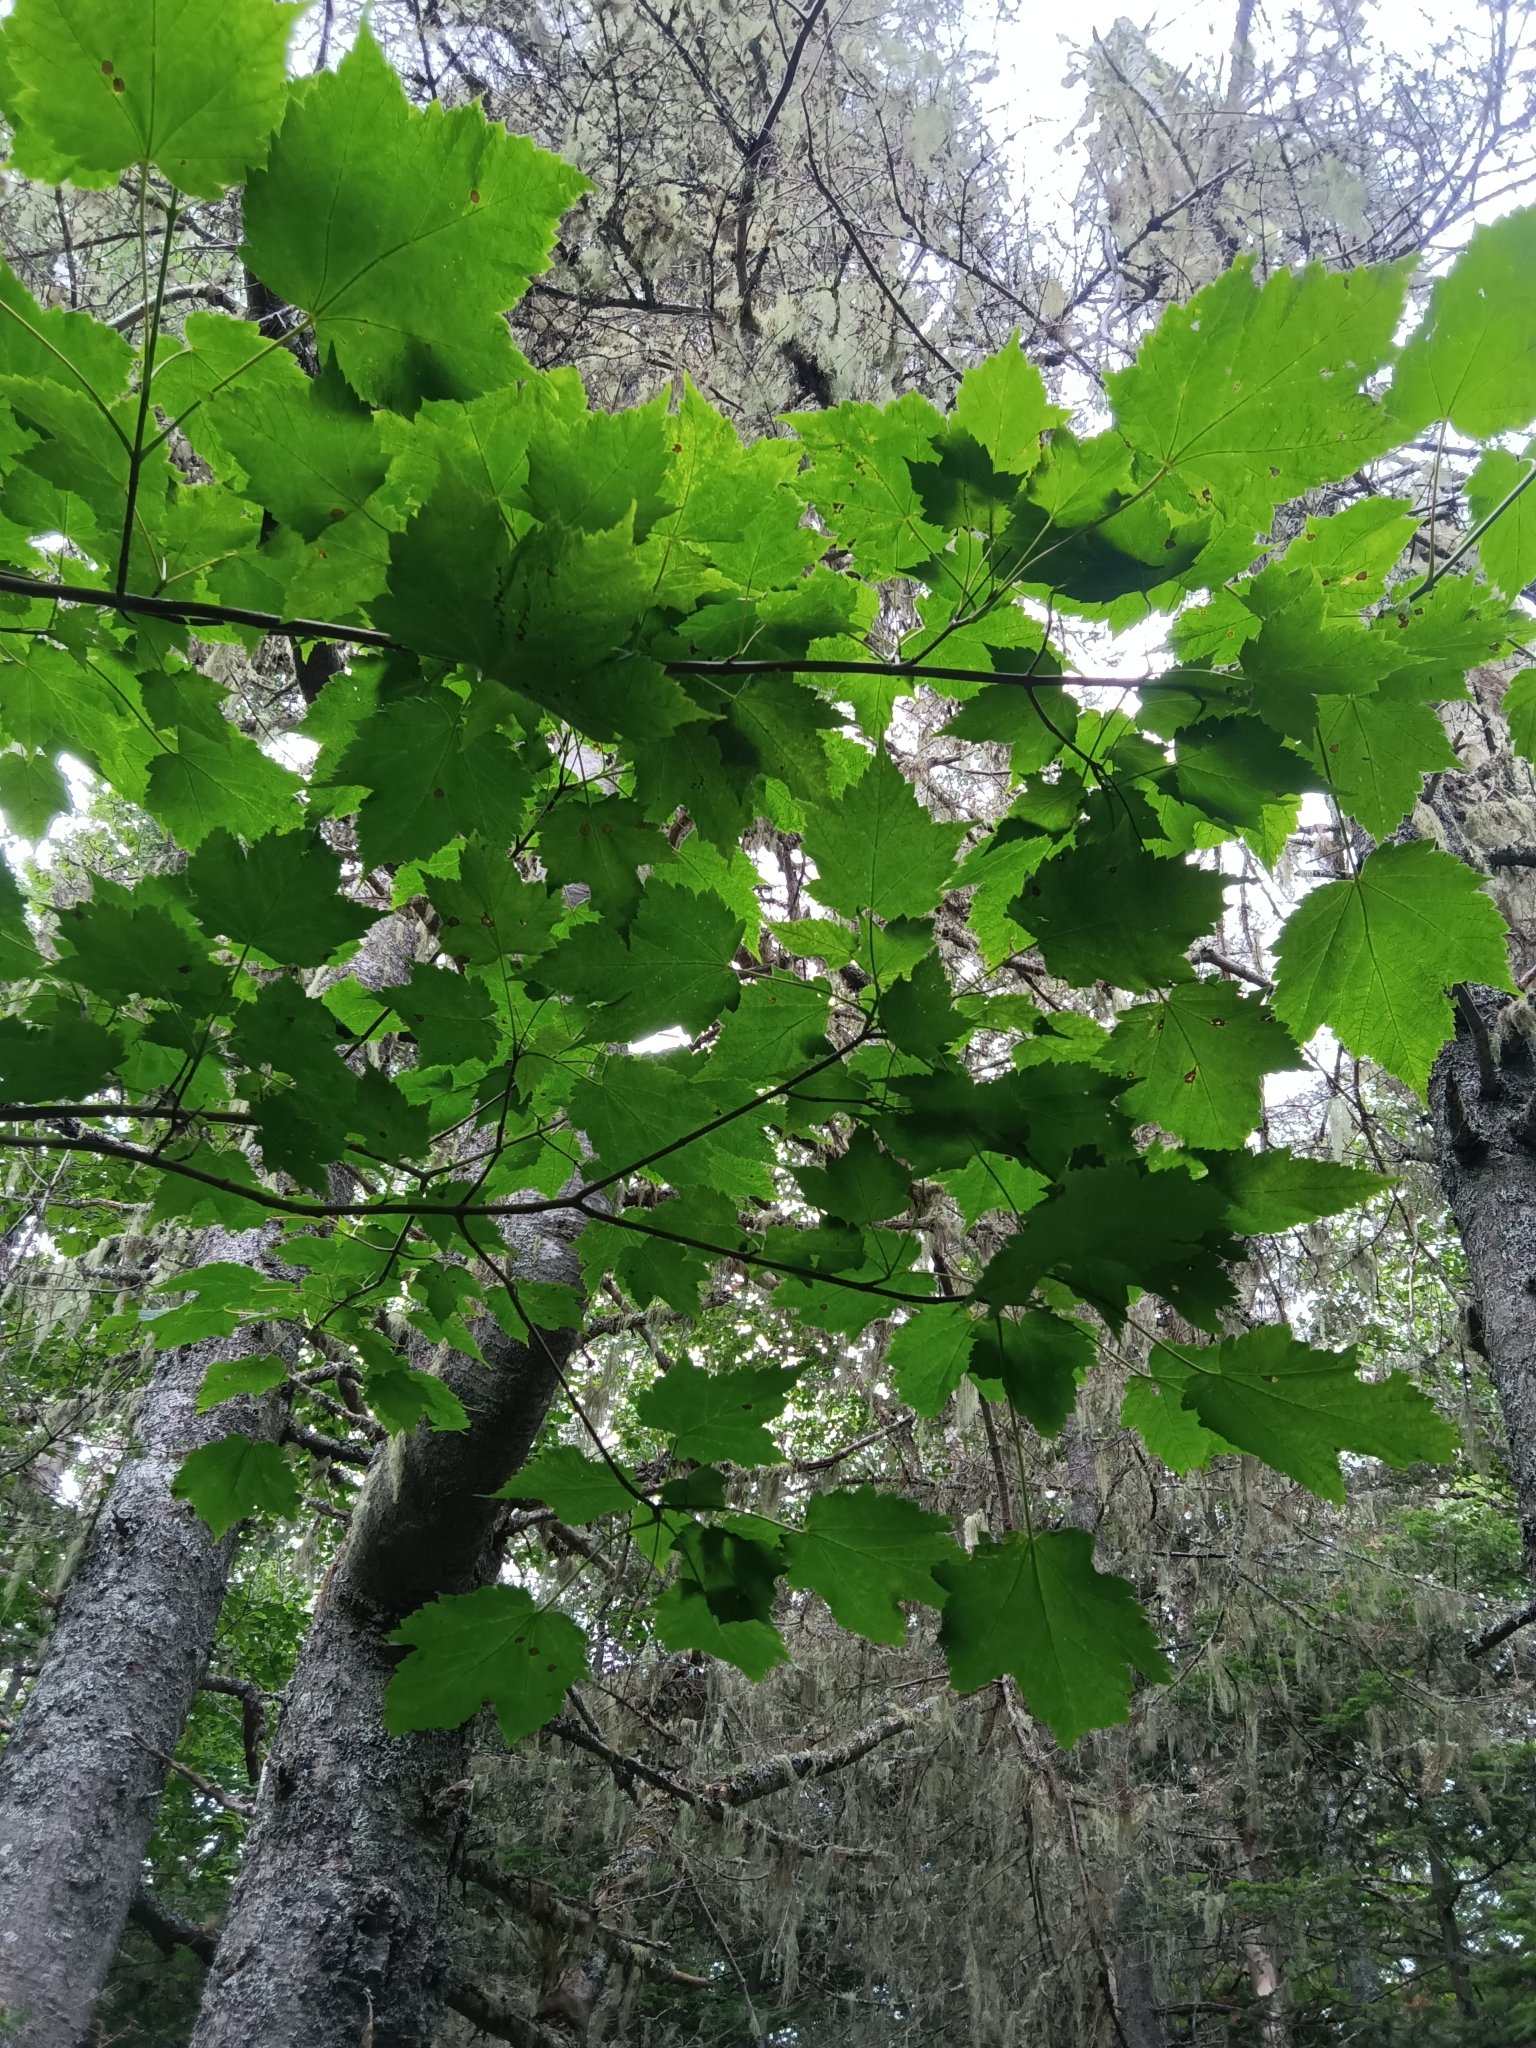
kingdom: Plantae
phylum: Tracheophyta
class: Magnoliopsida
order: Sapindales
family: Sapindaceae
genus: Acer
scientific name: Acer spicatum
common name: Mountain maple
